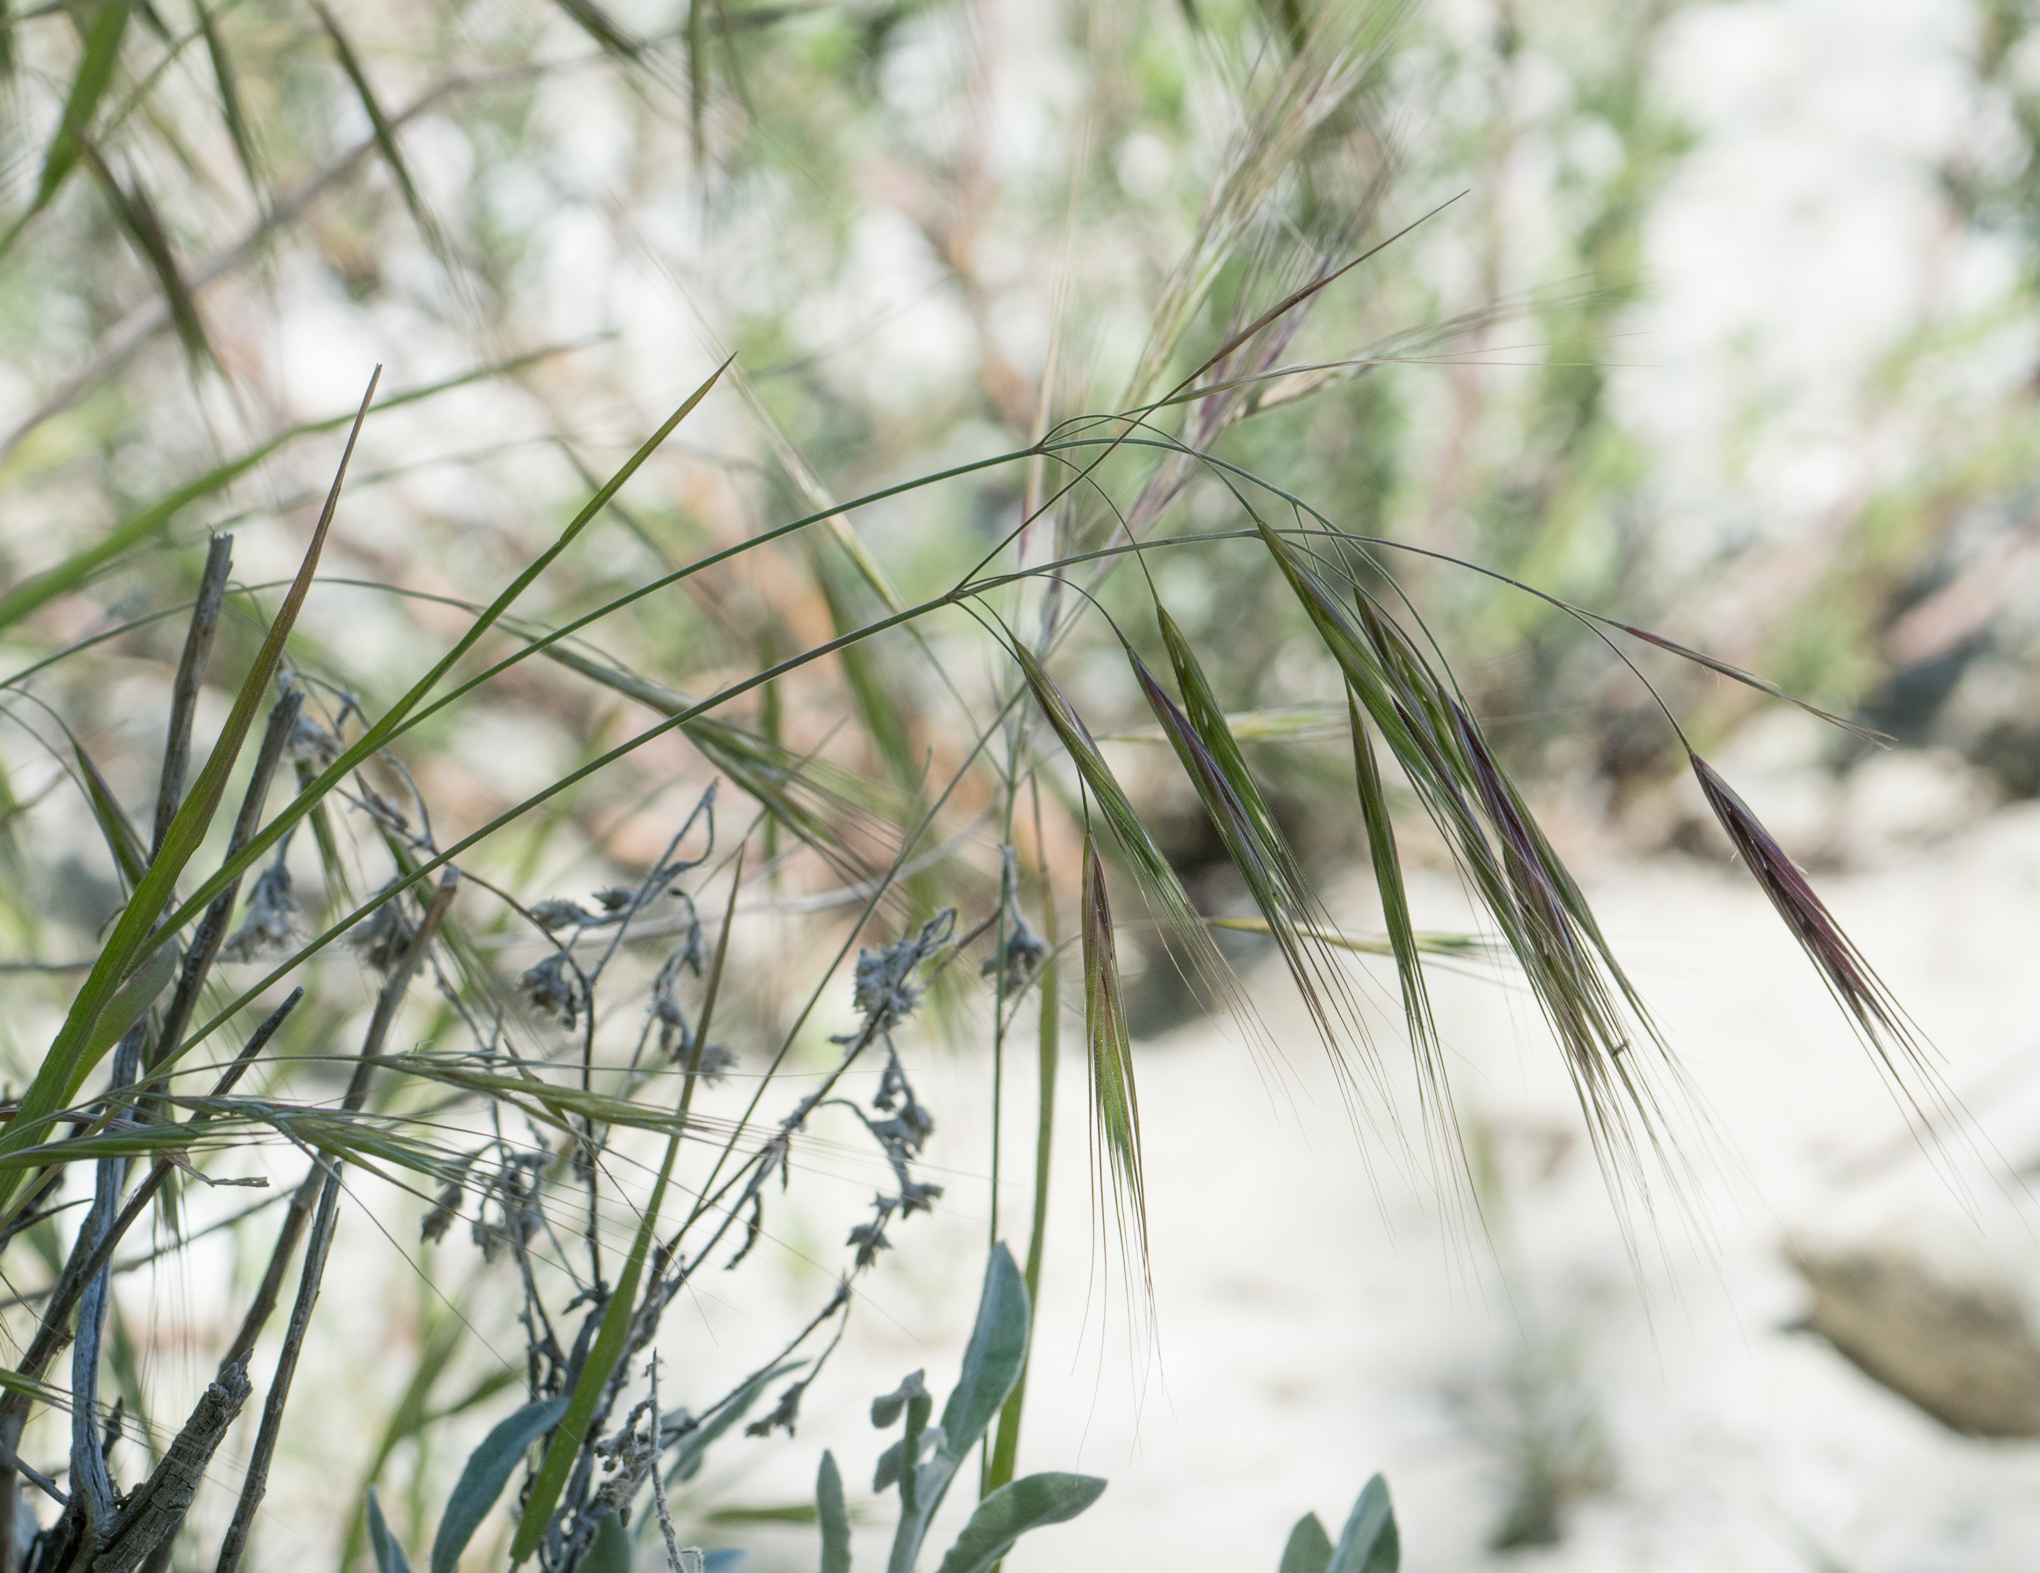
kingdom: Plantae
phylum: Tracheophyta
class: Liliopsida
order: Poales
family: Poaceae
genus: Bromus
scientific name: Bromus diandrus
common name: Ripgut brome
